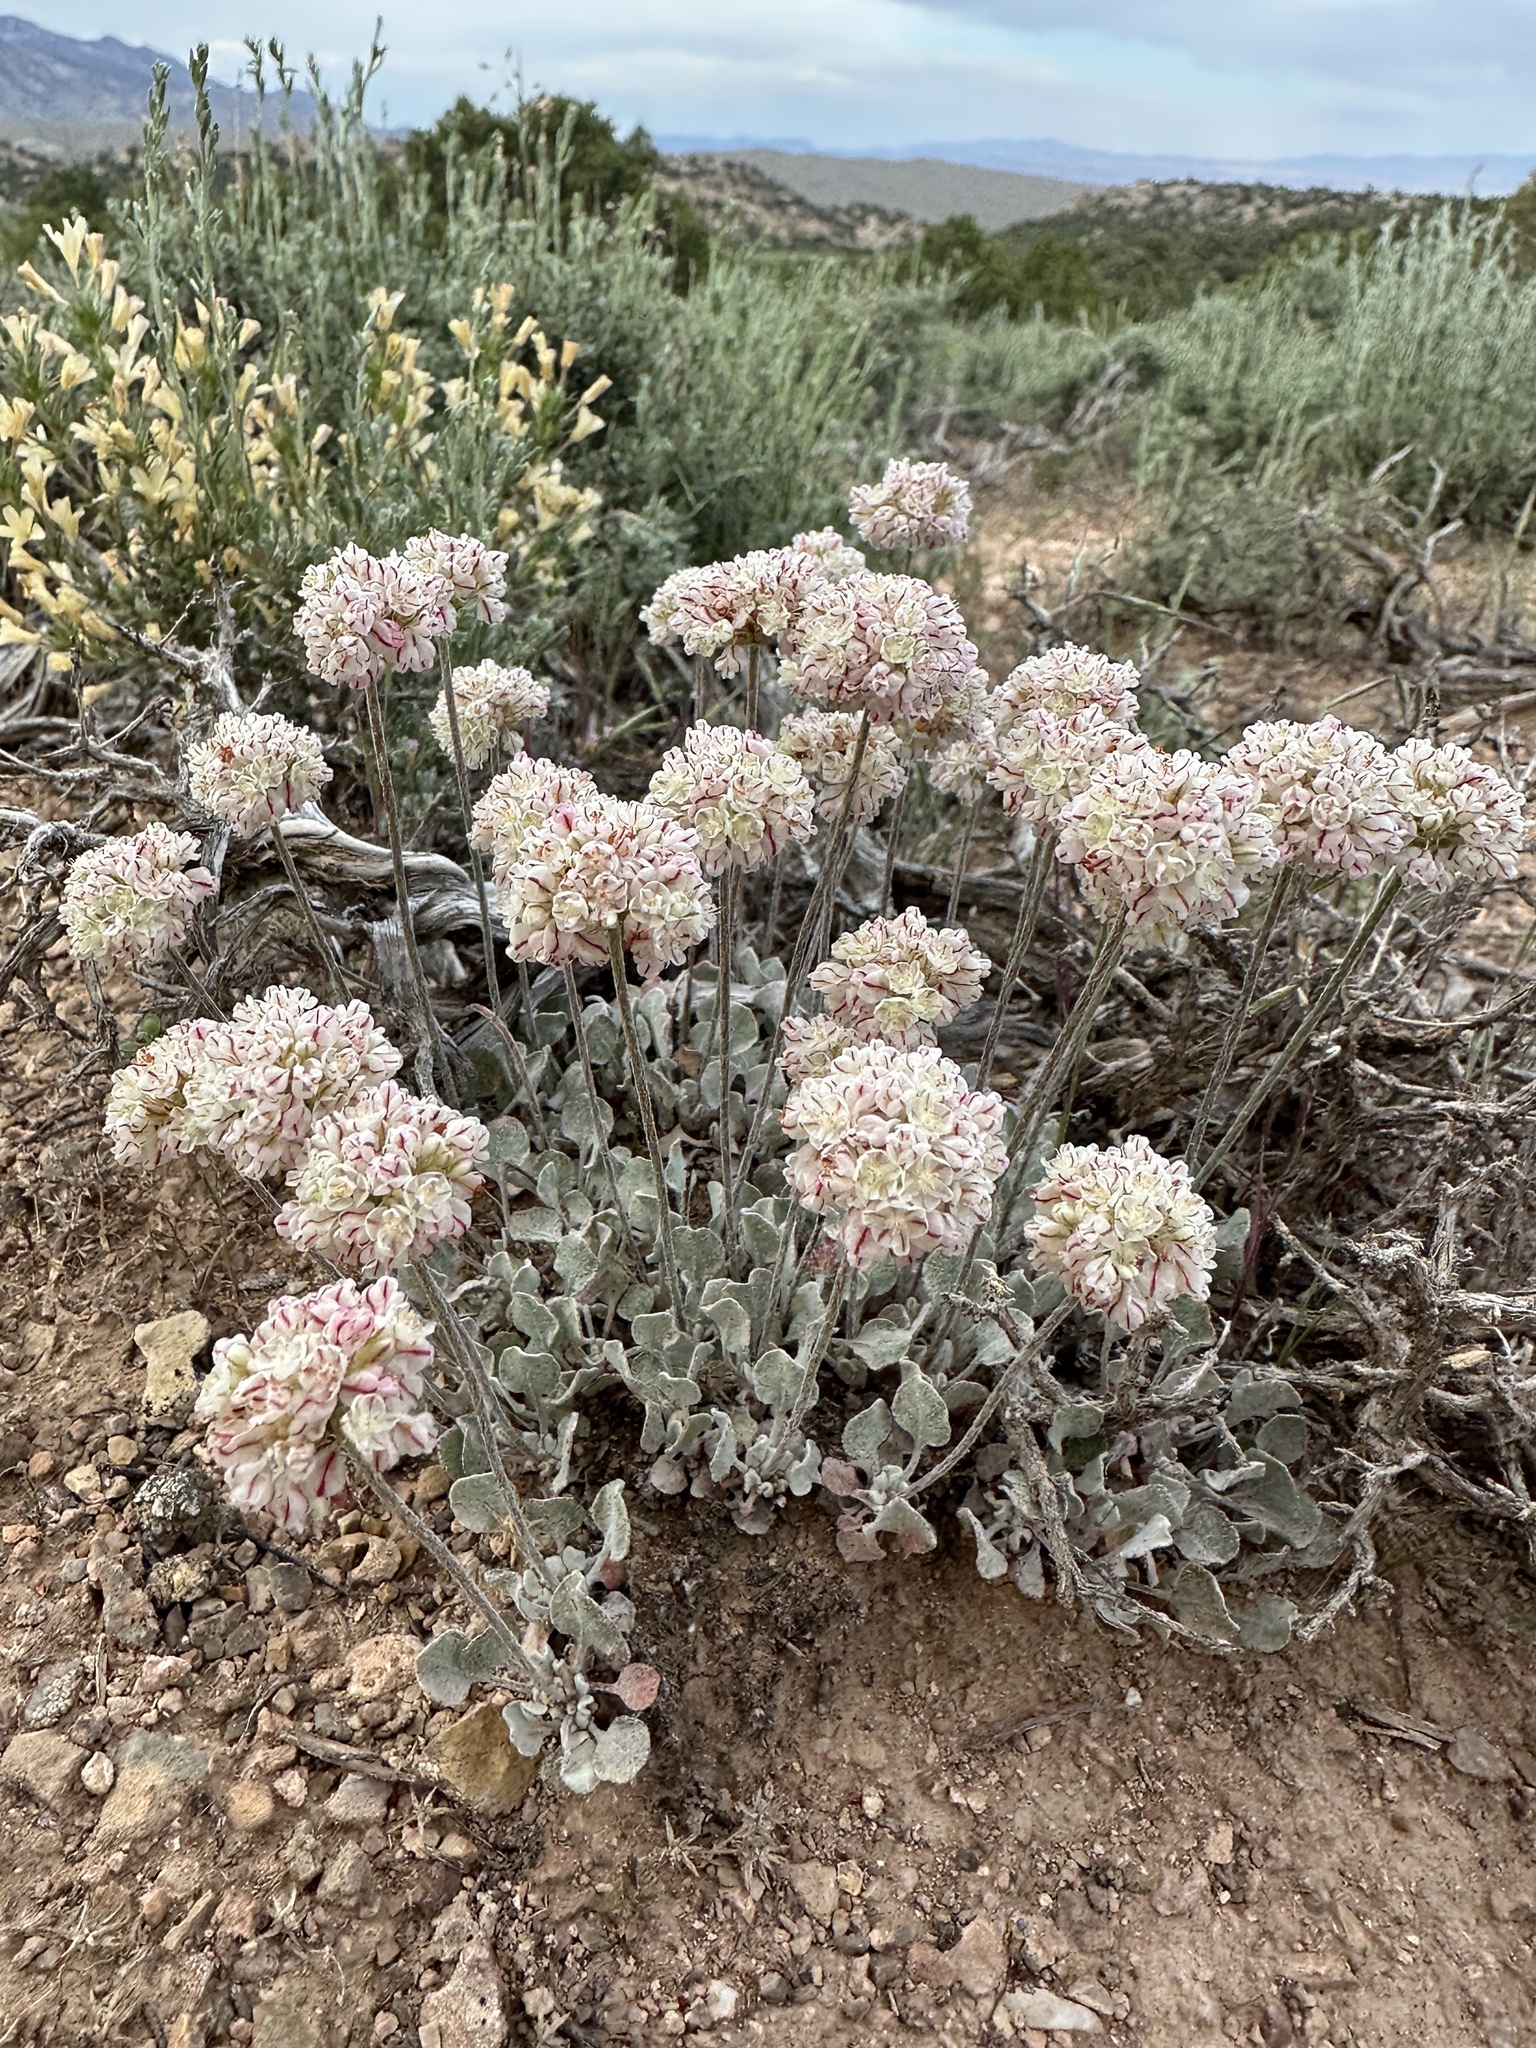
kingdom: Plantae
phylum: Tracheophyta
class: Magnoliopsida
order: Caryophyllales
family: Polygonaceae
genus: Eriogonum
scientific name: Eriogonum ovalifolium
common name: Cushion buckwheat
